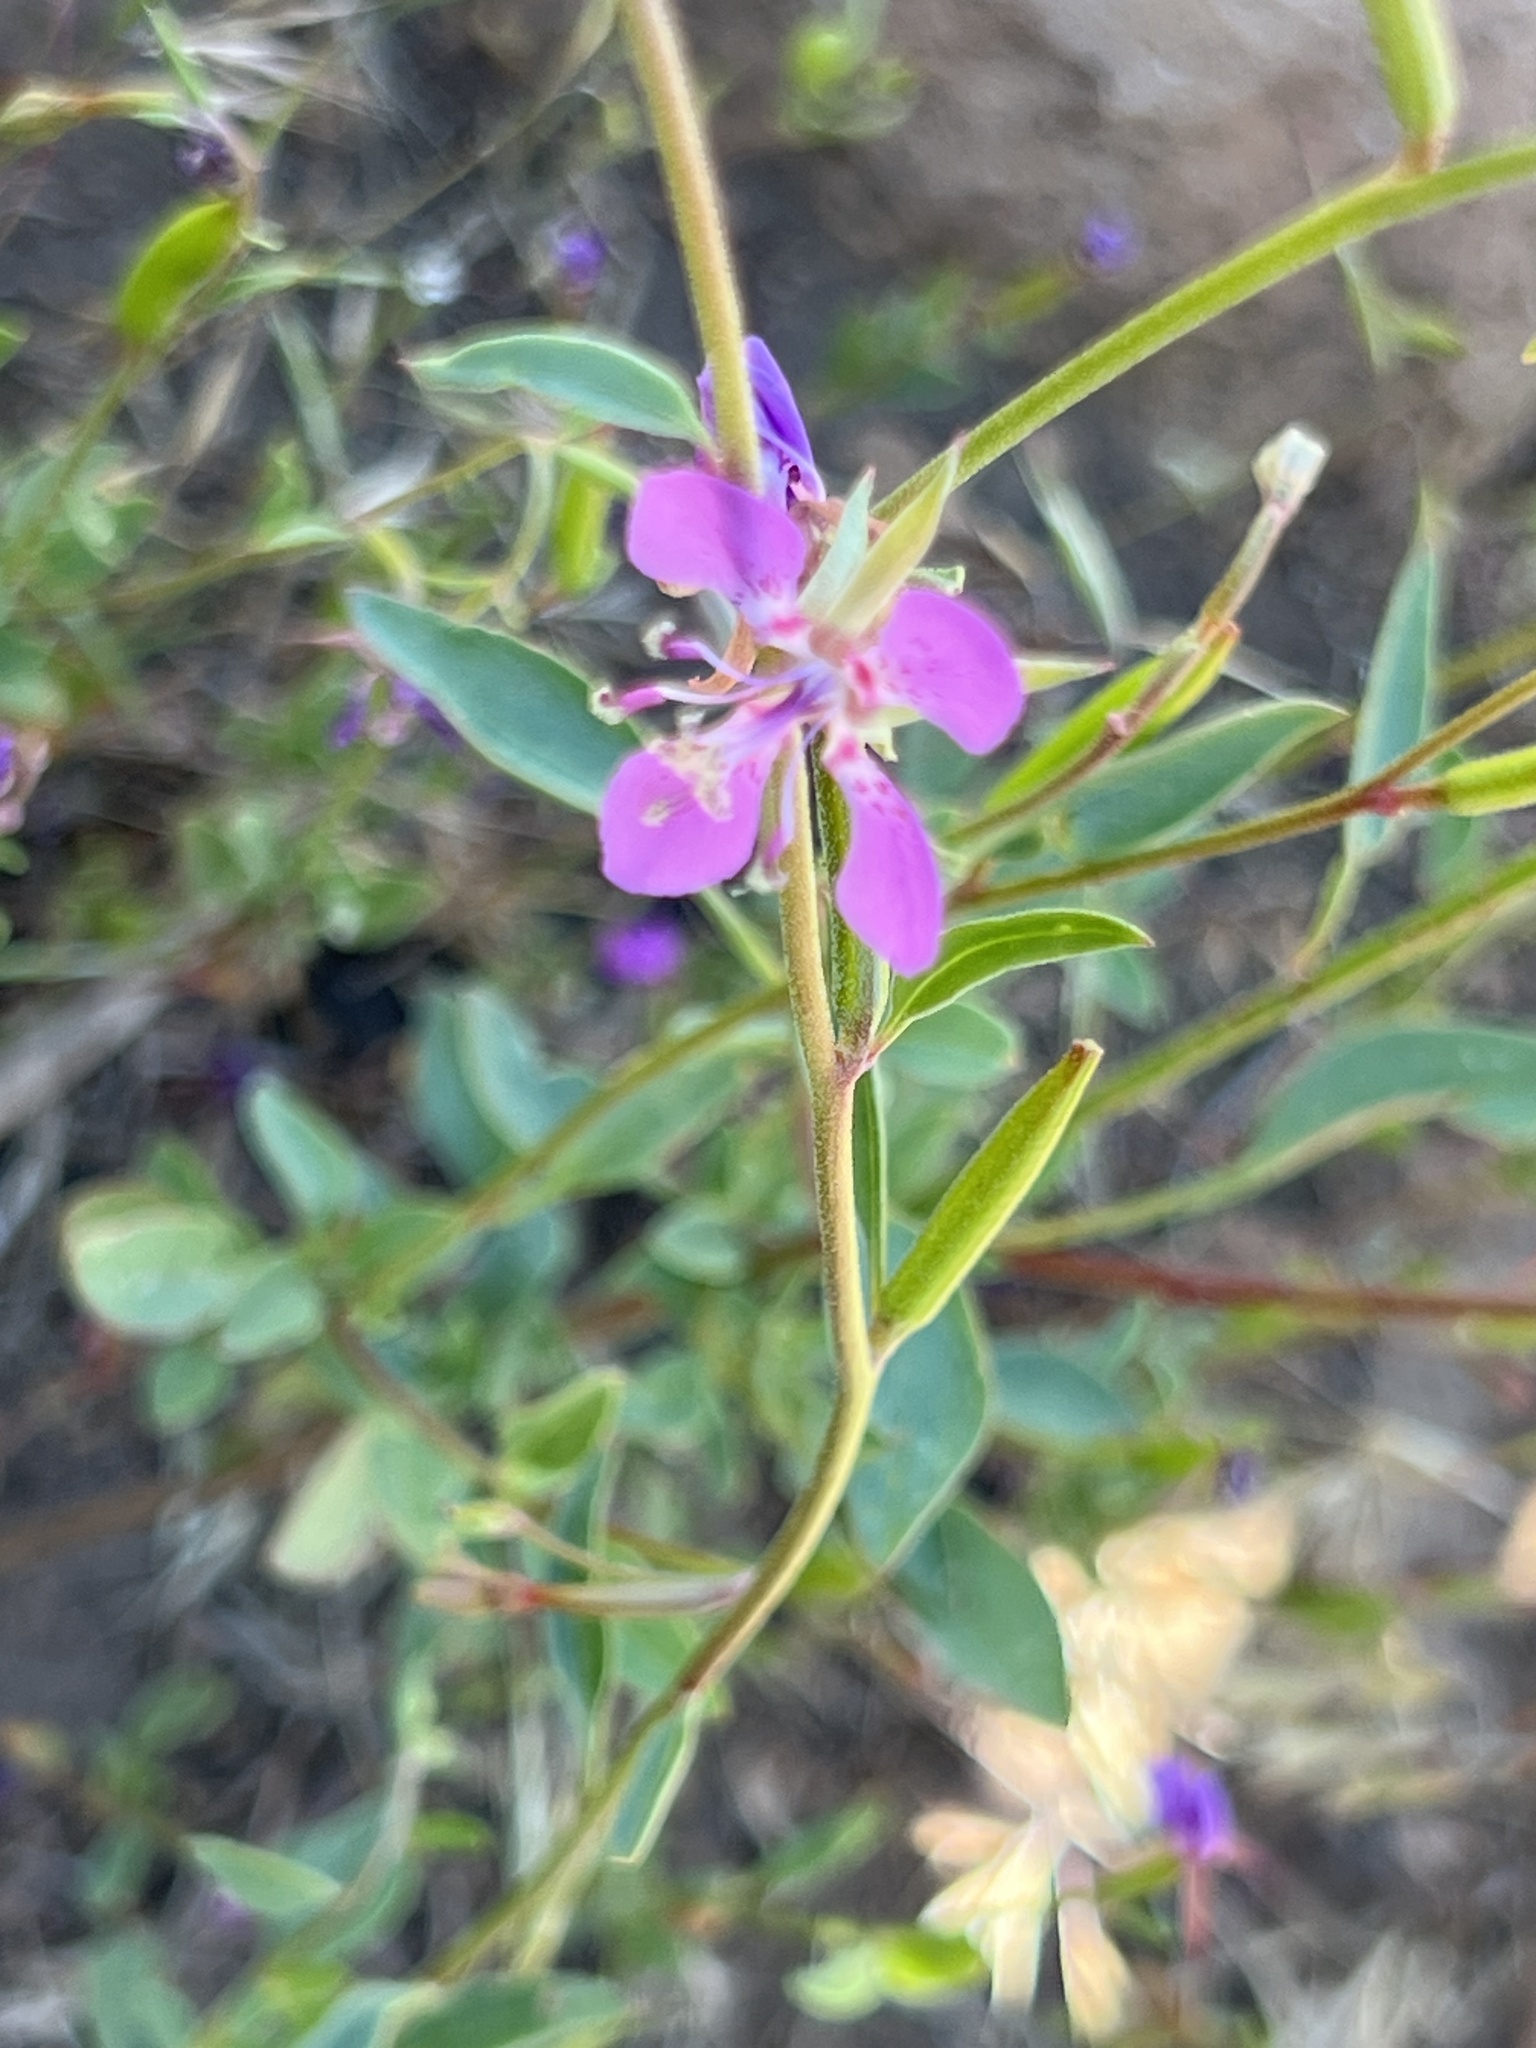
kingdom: Plantae
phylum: Tracheophyta
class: Magnoliopsida
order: Myrtales
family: Onagraceae
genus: Clarkia
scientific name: Clarkia rhomboidea
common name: Broadleaf clarkia
